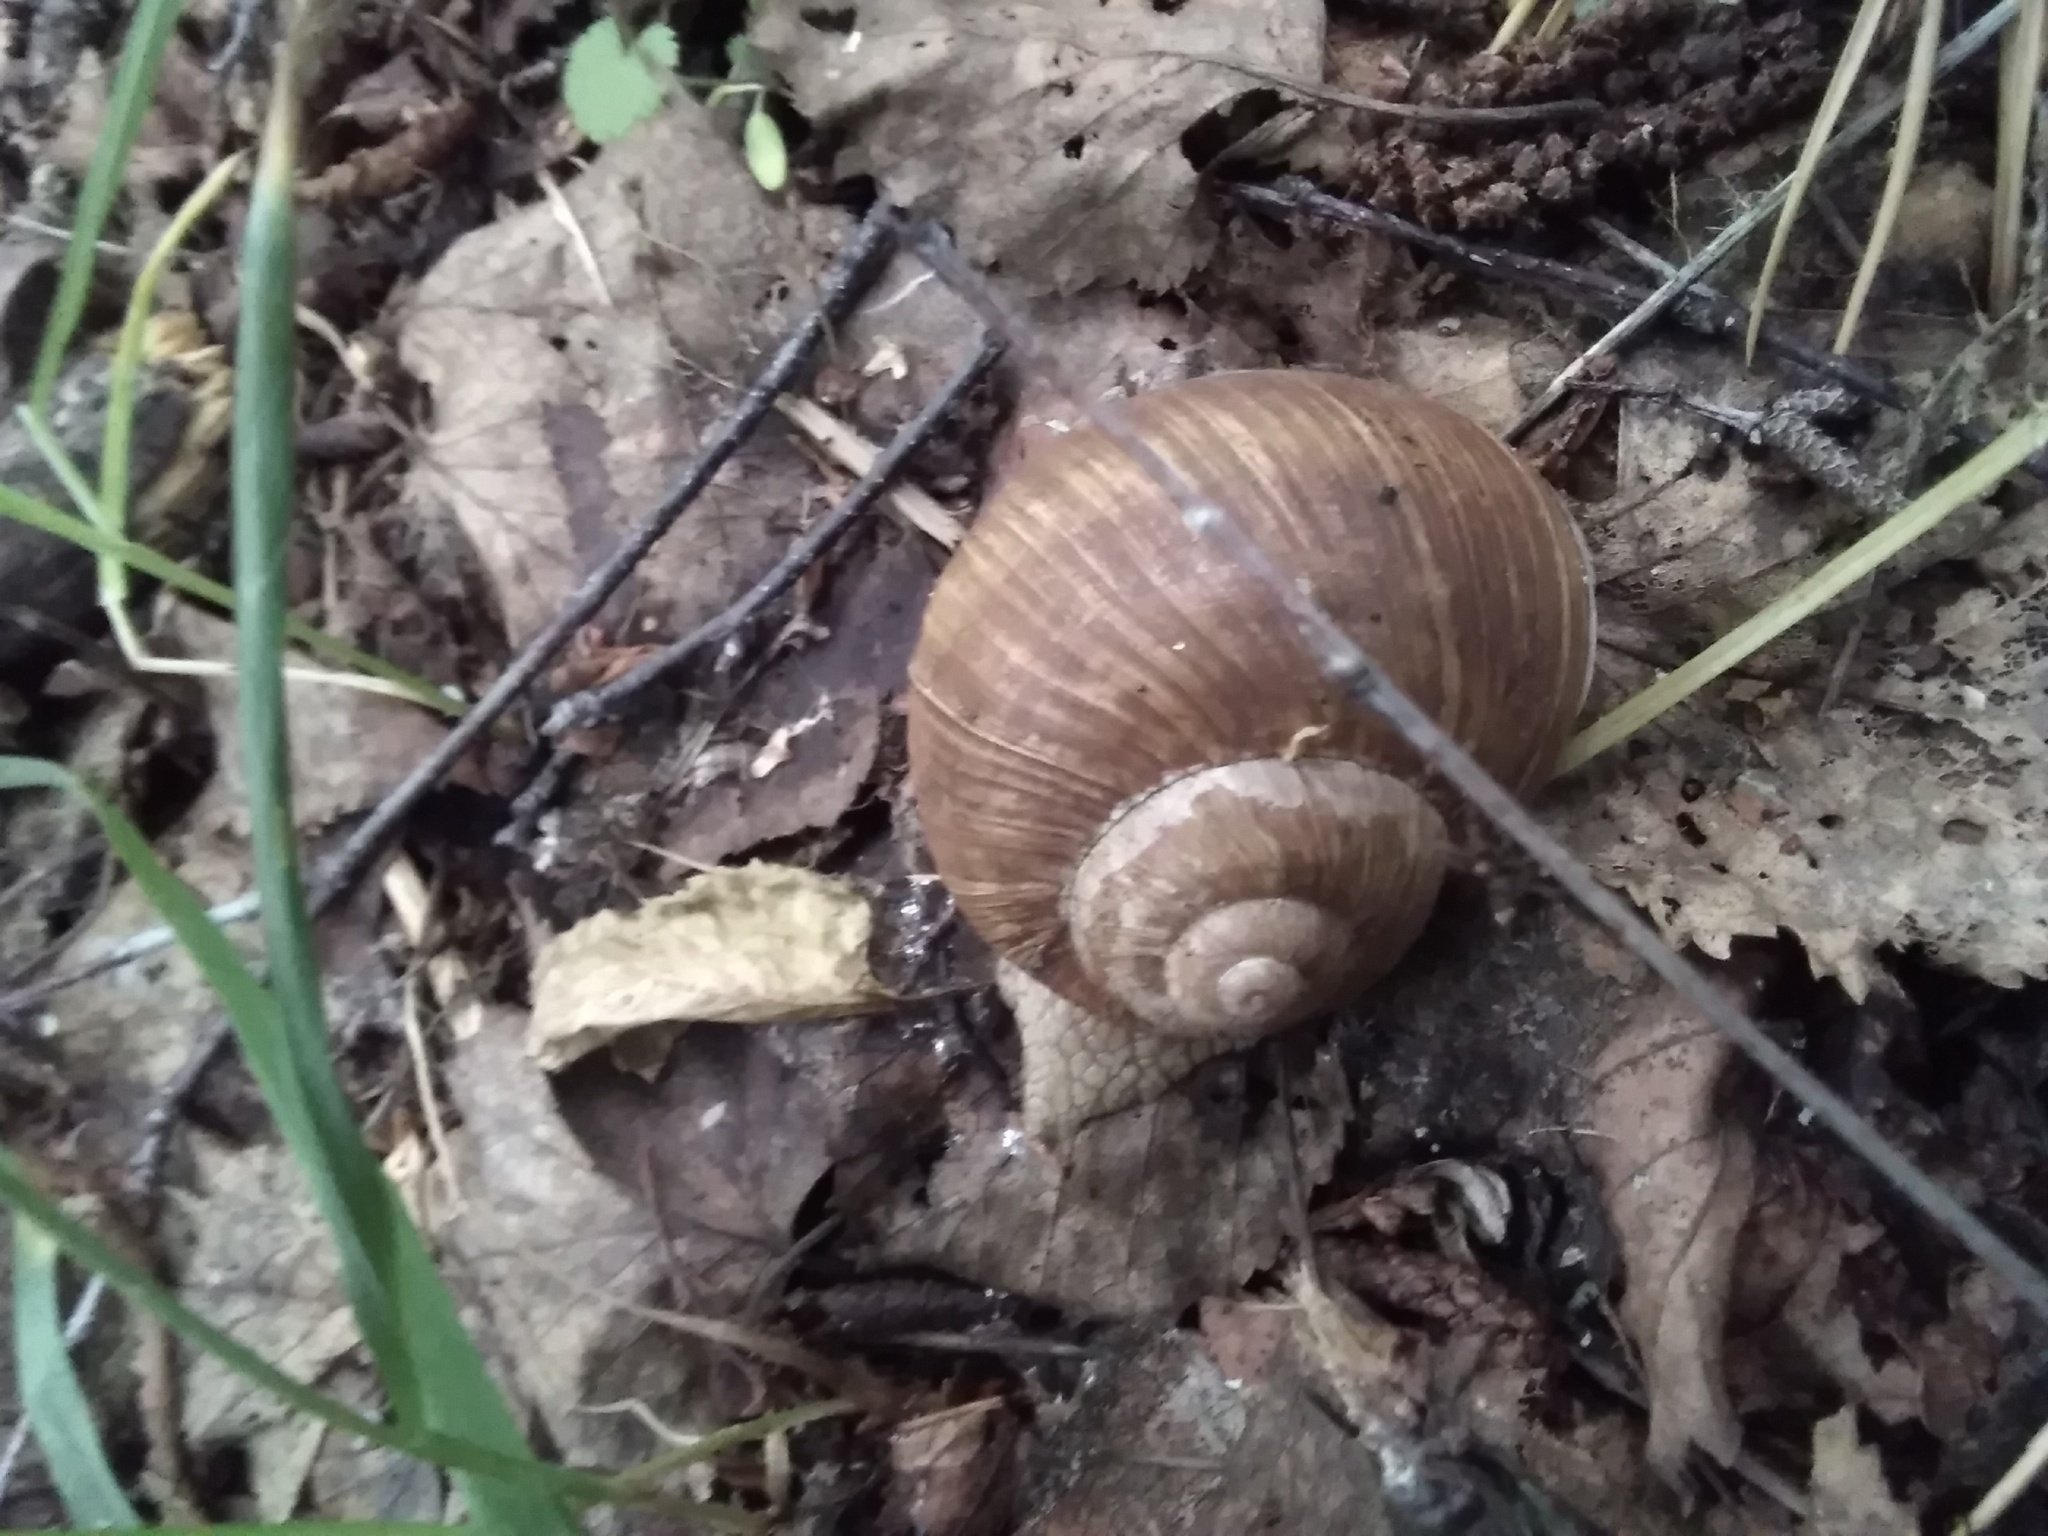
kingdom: Animalia
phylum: Mollusca
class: Gastropoda
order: Stylommatophora
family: Helicidae
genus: Helix
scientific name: Helix pomatia
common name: Roman snail
